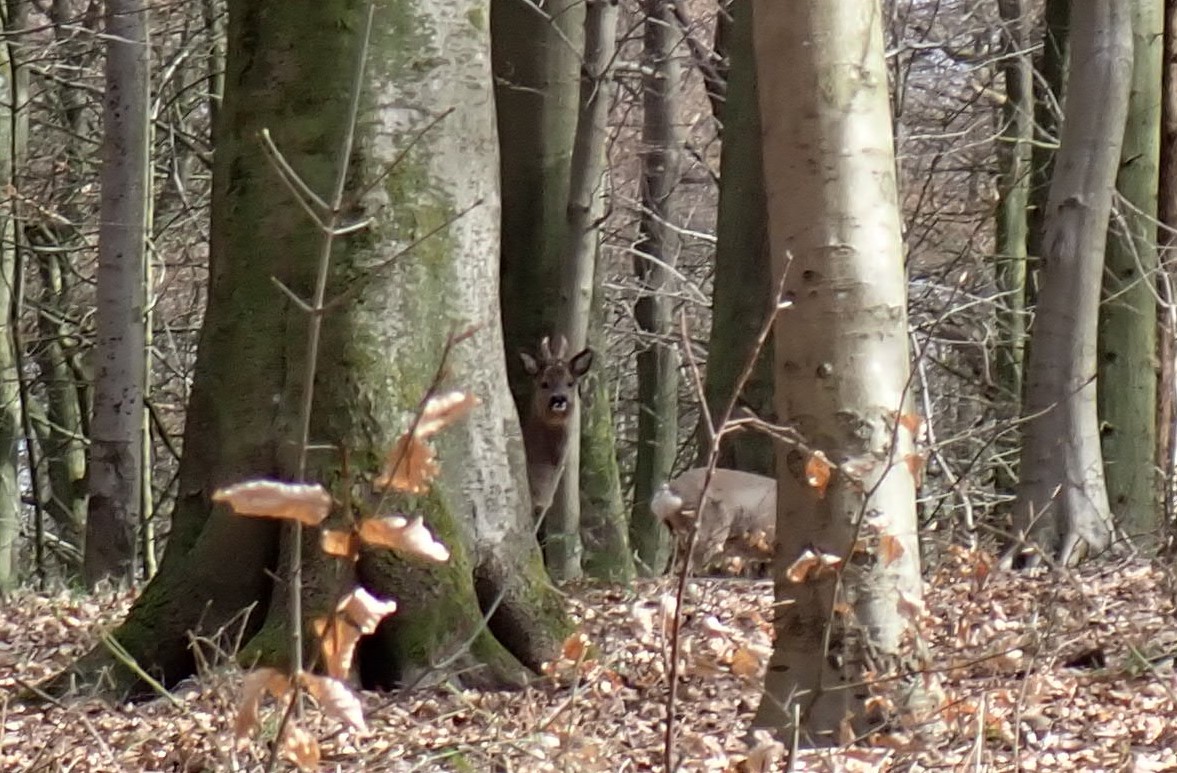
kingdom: Animalia
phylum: Chordata
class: Mammalia
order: Artiodactyla
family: Cervidae
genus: Capreolus
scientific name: Capreolus capreolus
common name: Western roe deer
